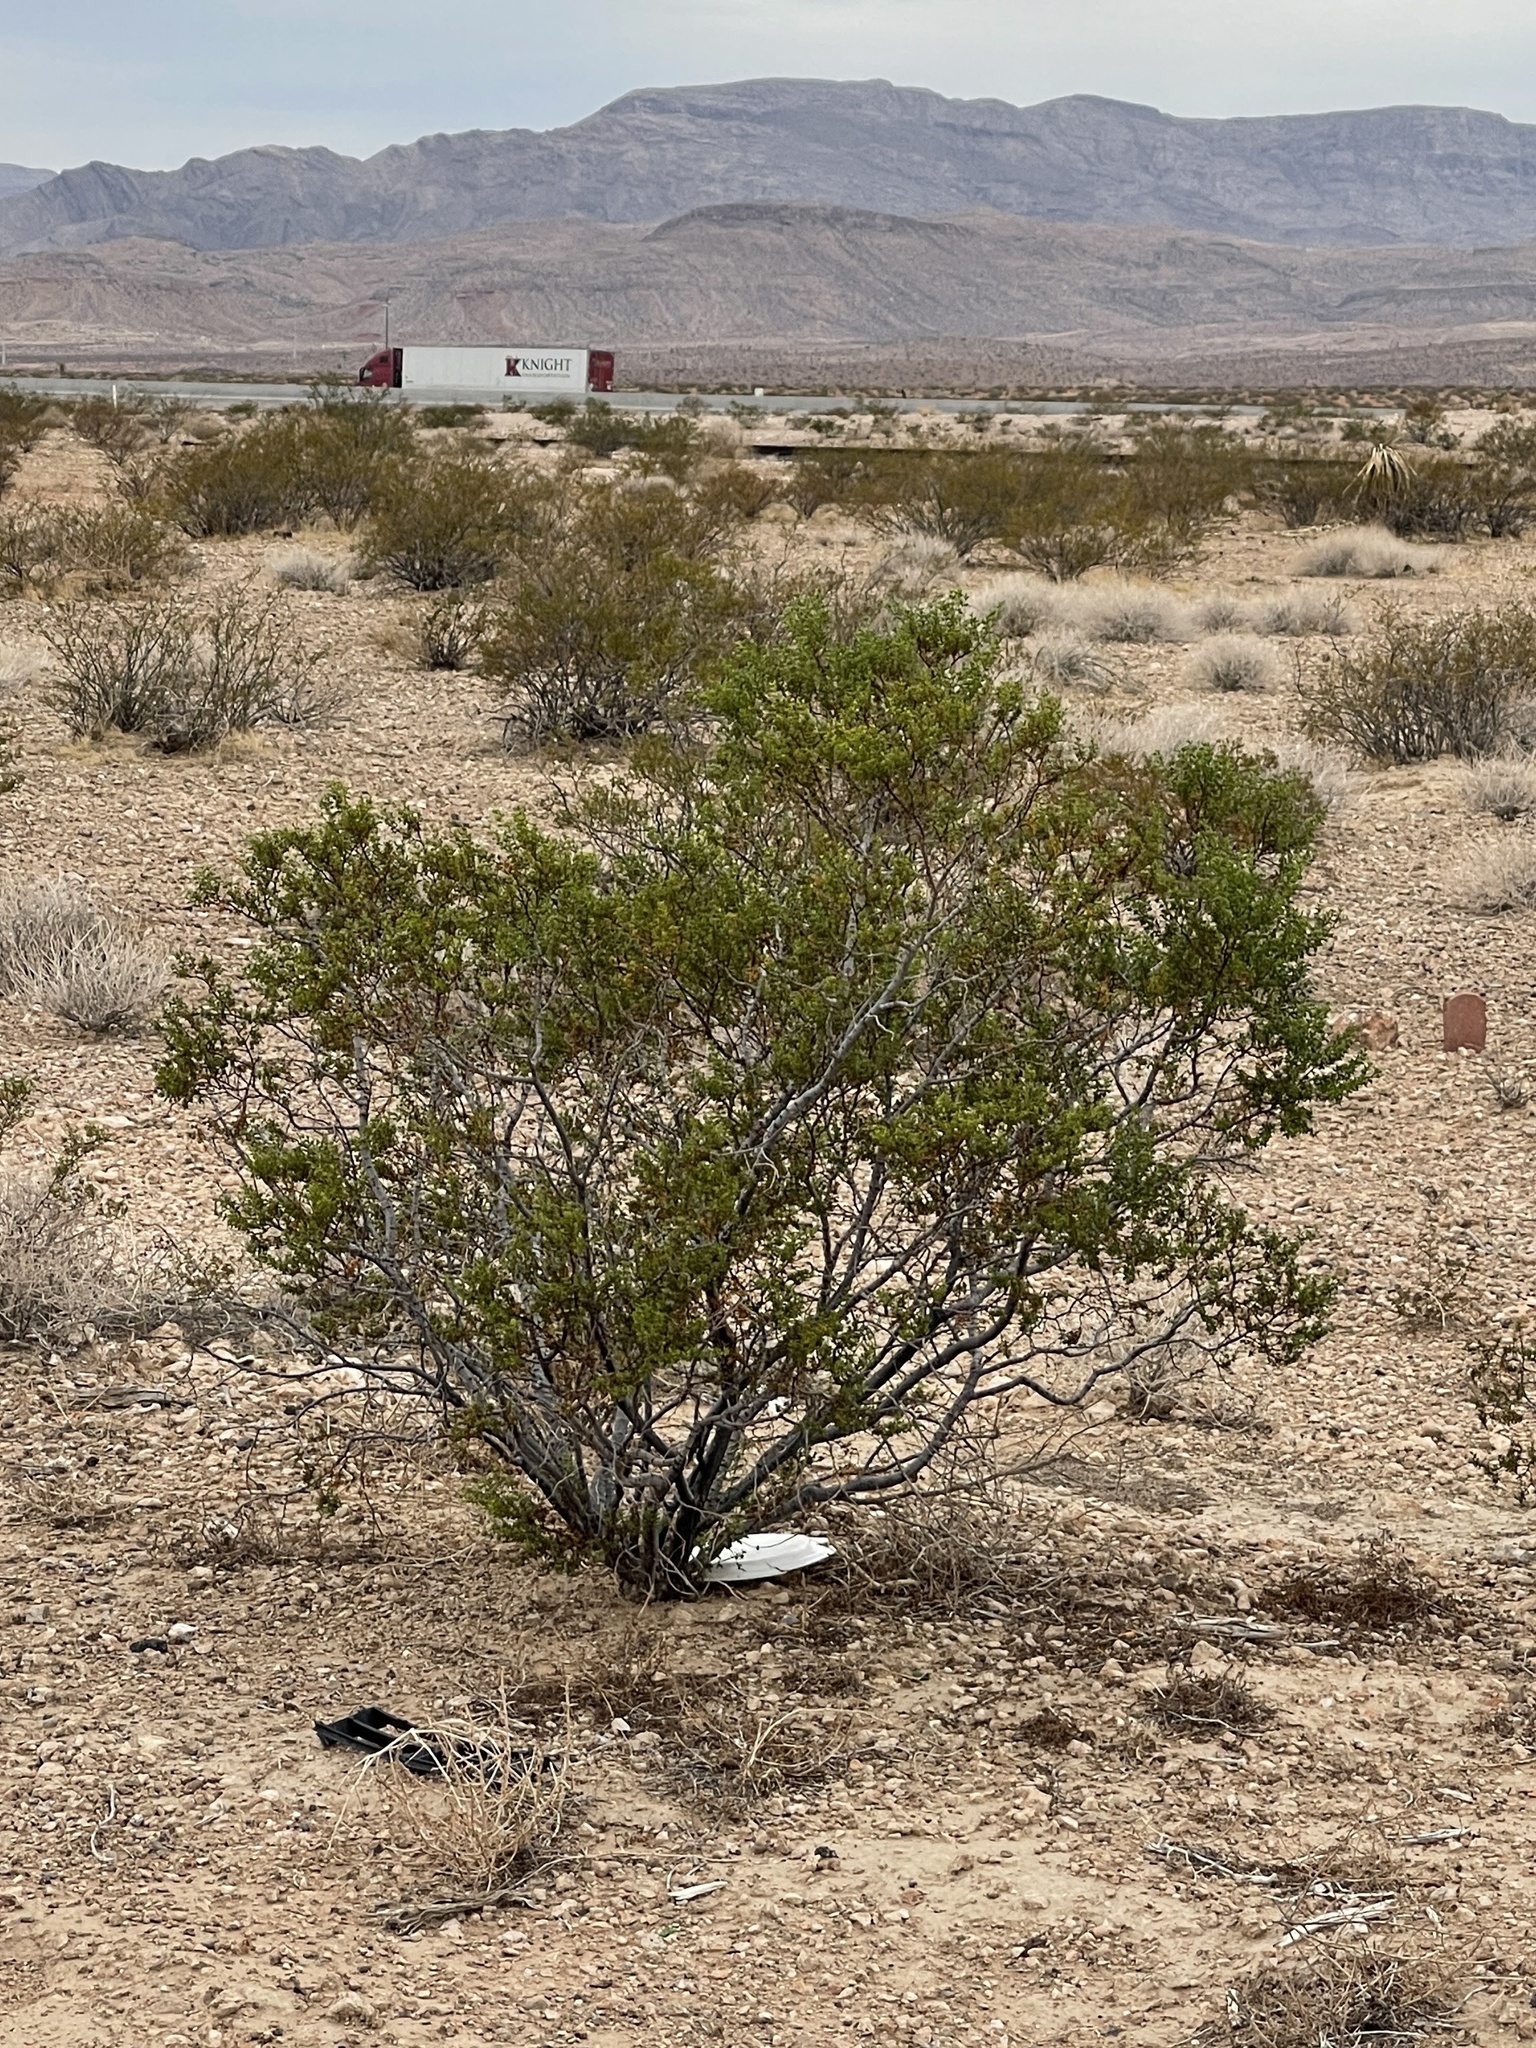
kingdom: Plantae
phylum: Tracheophyta
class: Magnoliopsida
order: Zygophyllales
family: Zygophyllaceae
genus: Larrea
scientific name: Larrea tridentata
